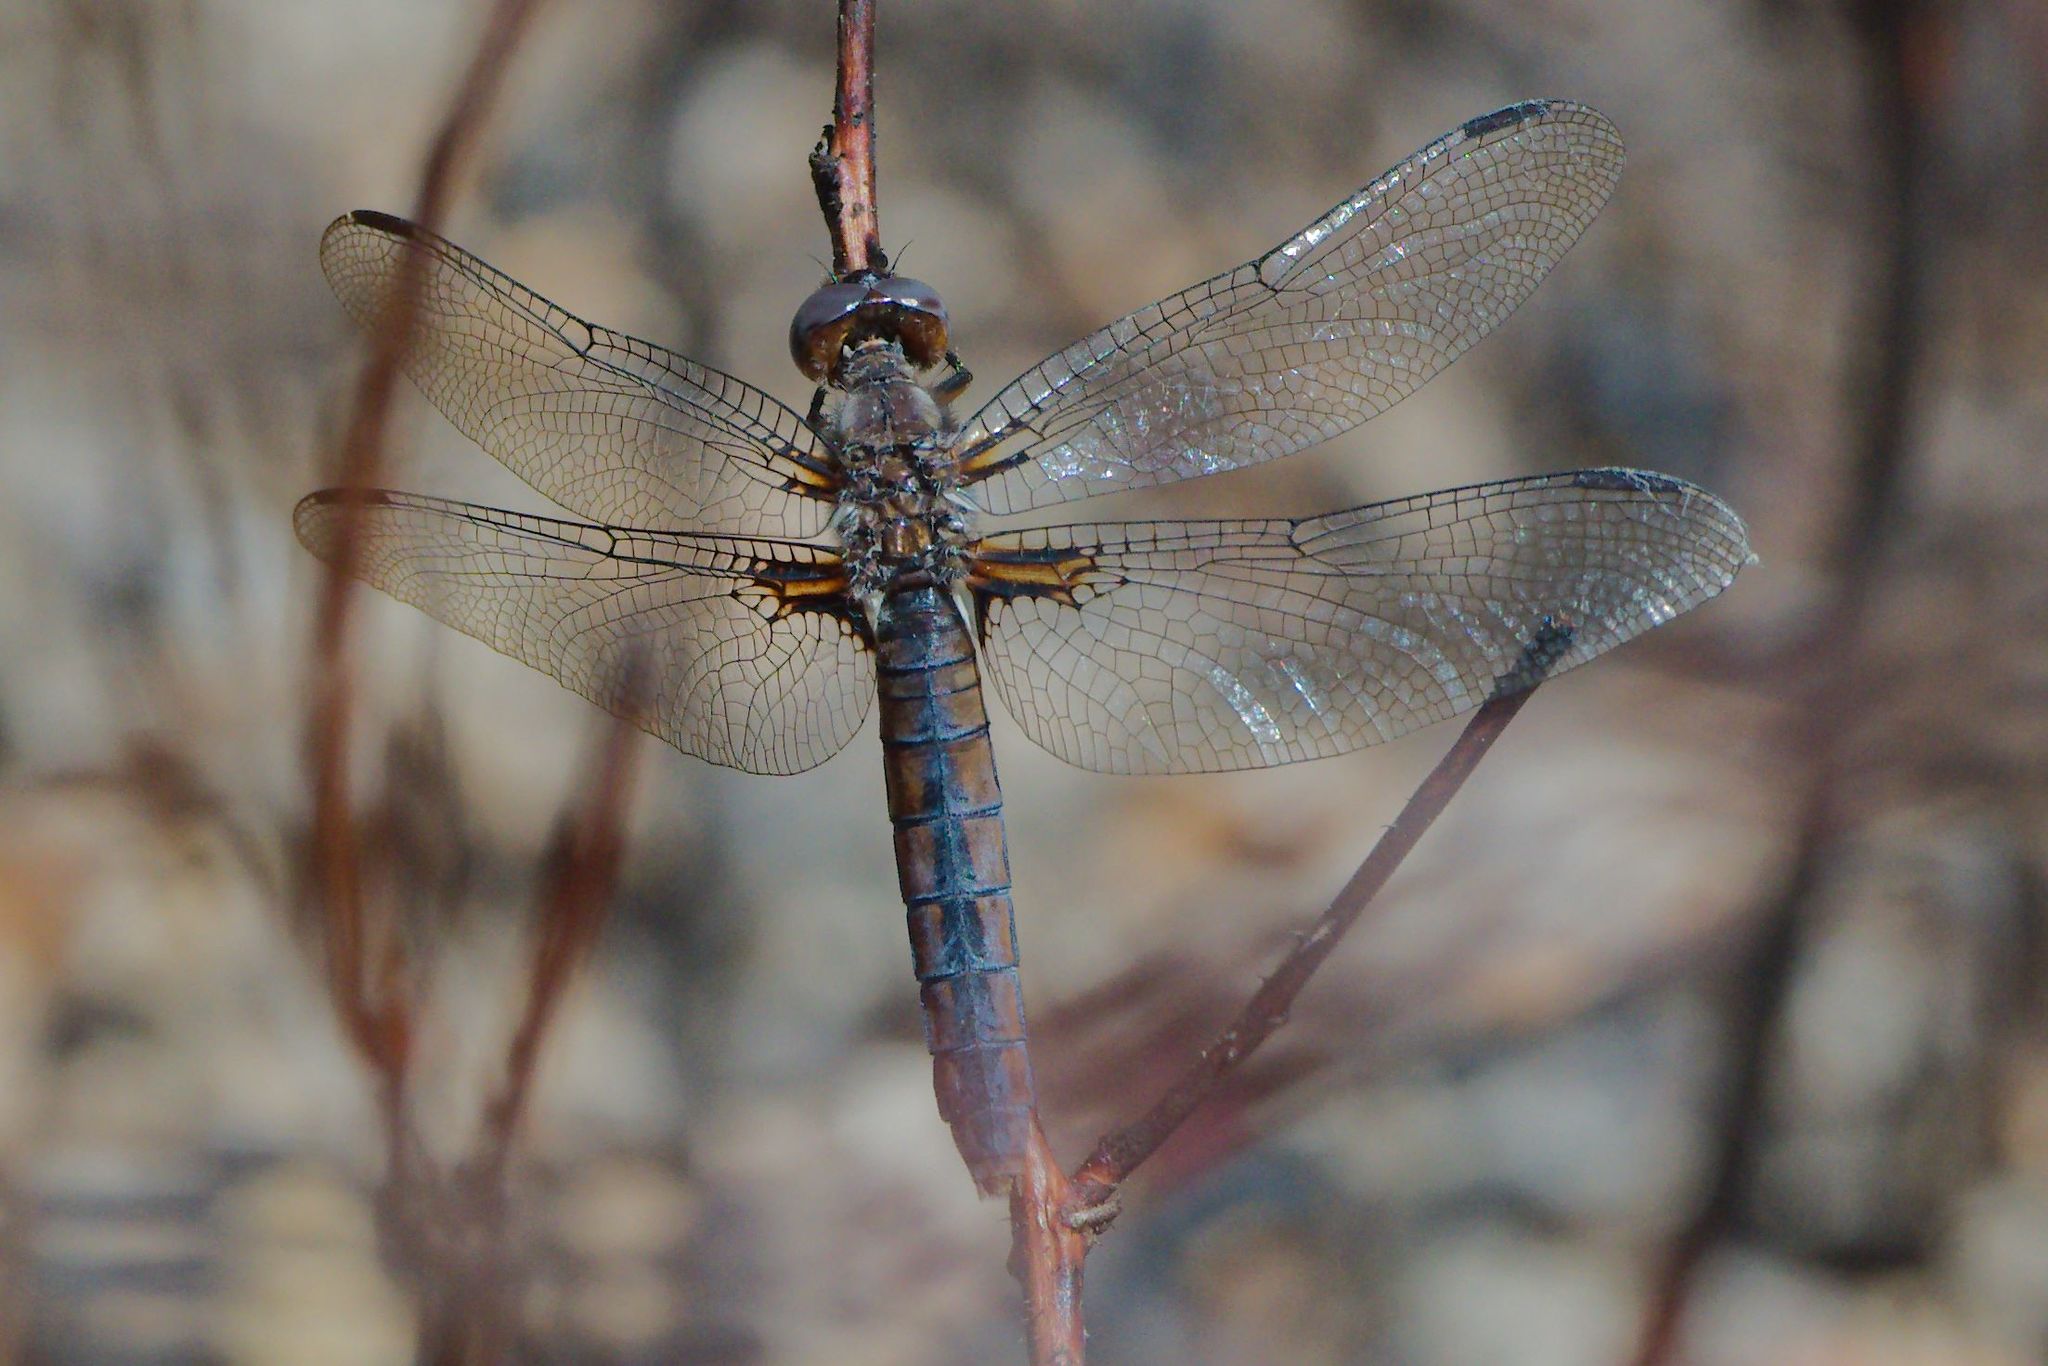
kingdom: Animalia
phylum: Arthropoda
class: Insecta
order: Odonata
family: Libellulidae
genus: Ladona
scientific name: Ladona deplanata
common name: Blue corporal
